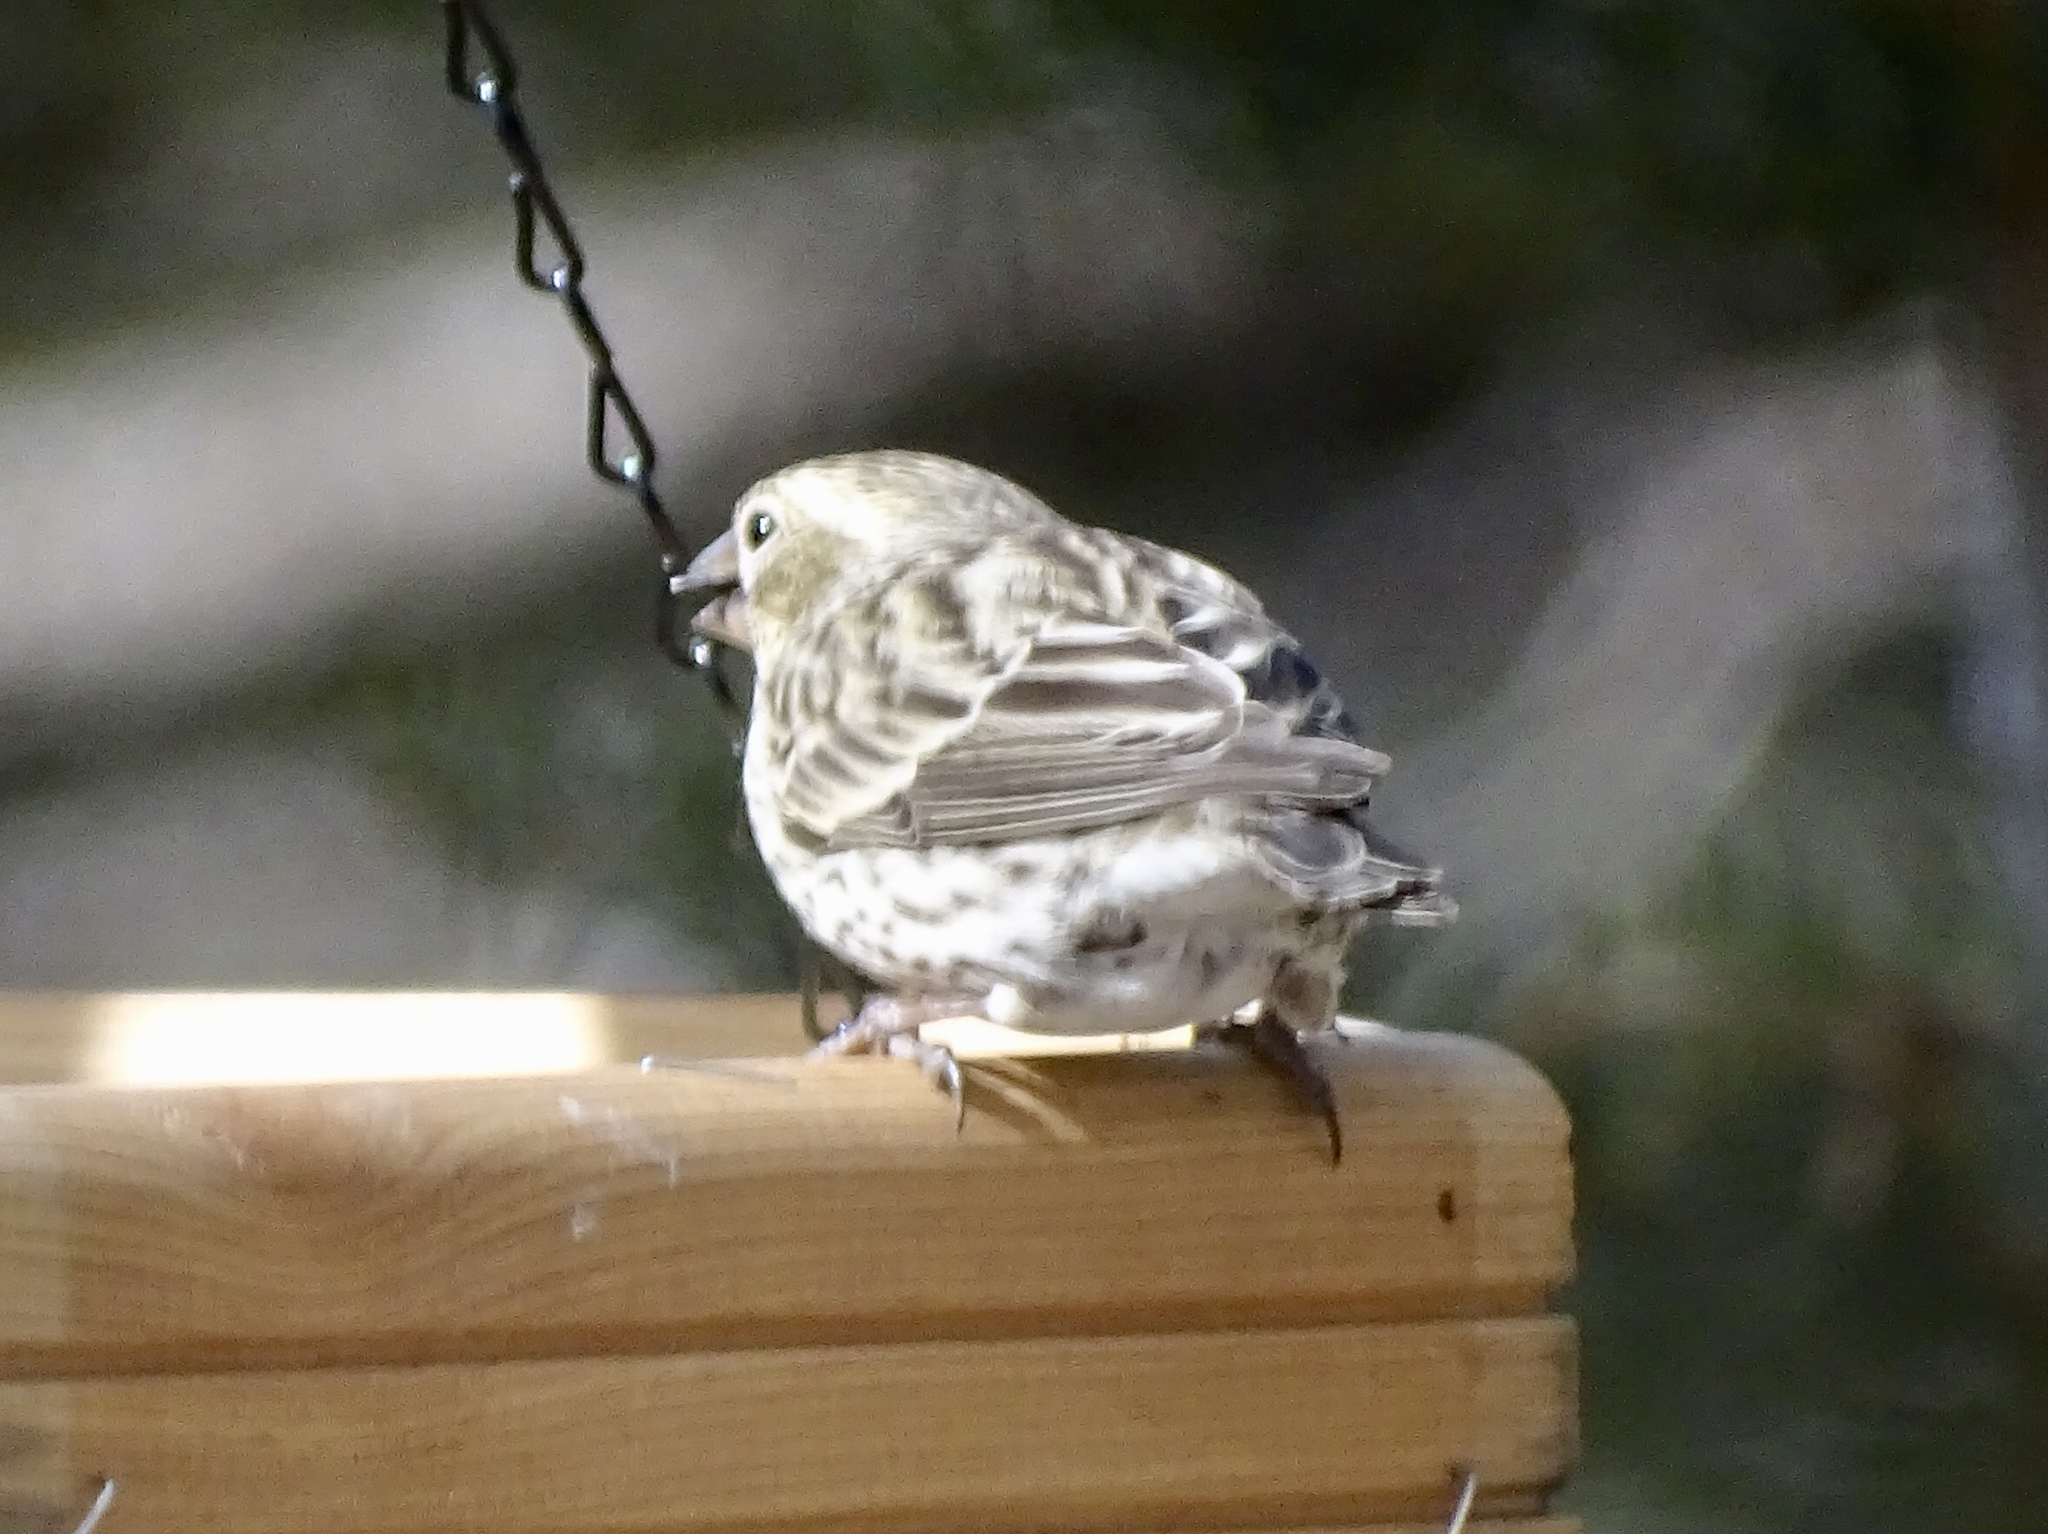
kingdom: Animalia
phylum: Chordata
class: Aves
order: Passeriformes
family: Fringillidae
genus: Haemorhous
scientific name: Haemorhous cassinii
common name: Cassin's finch
